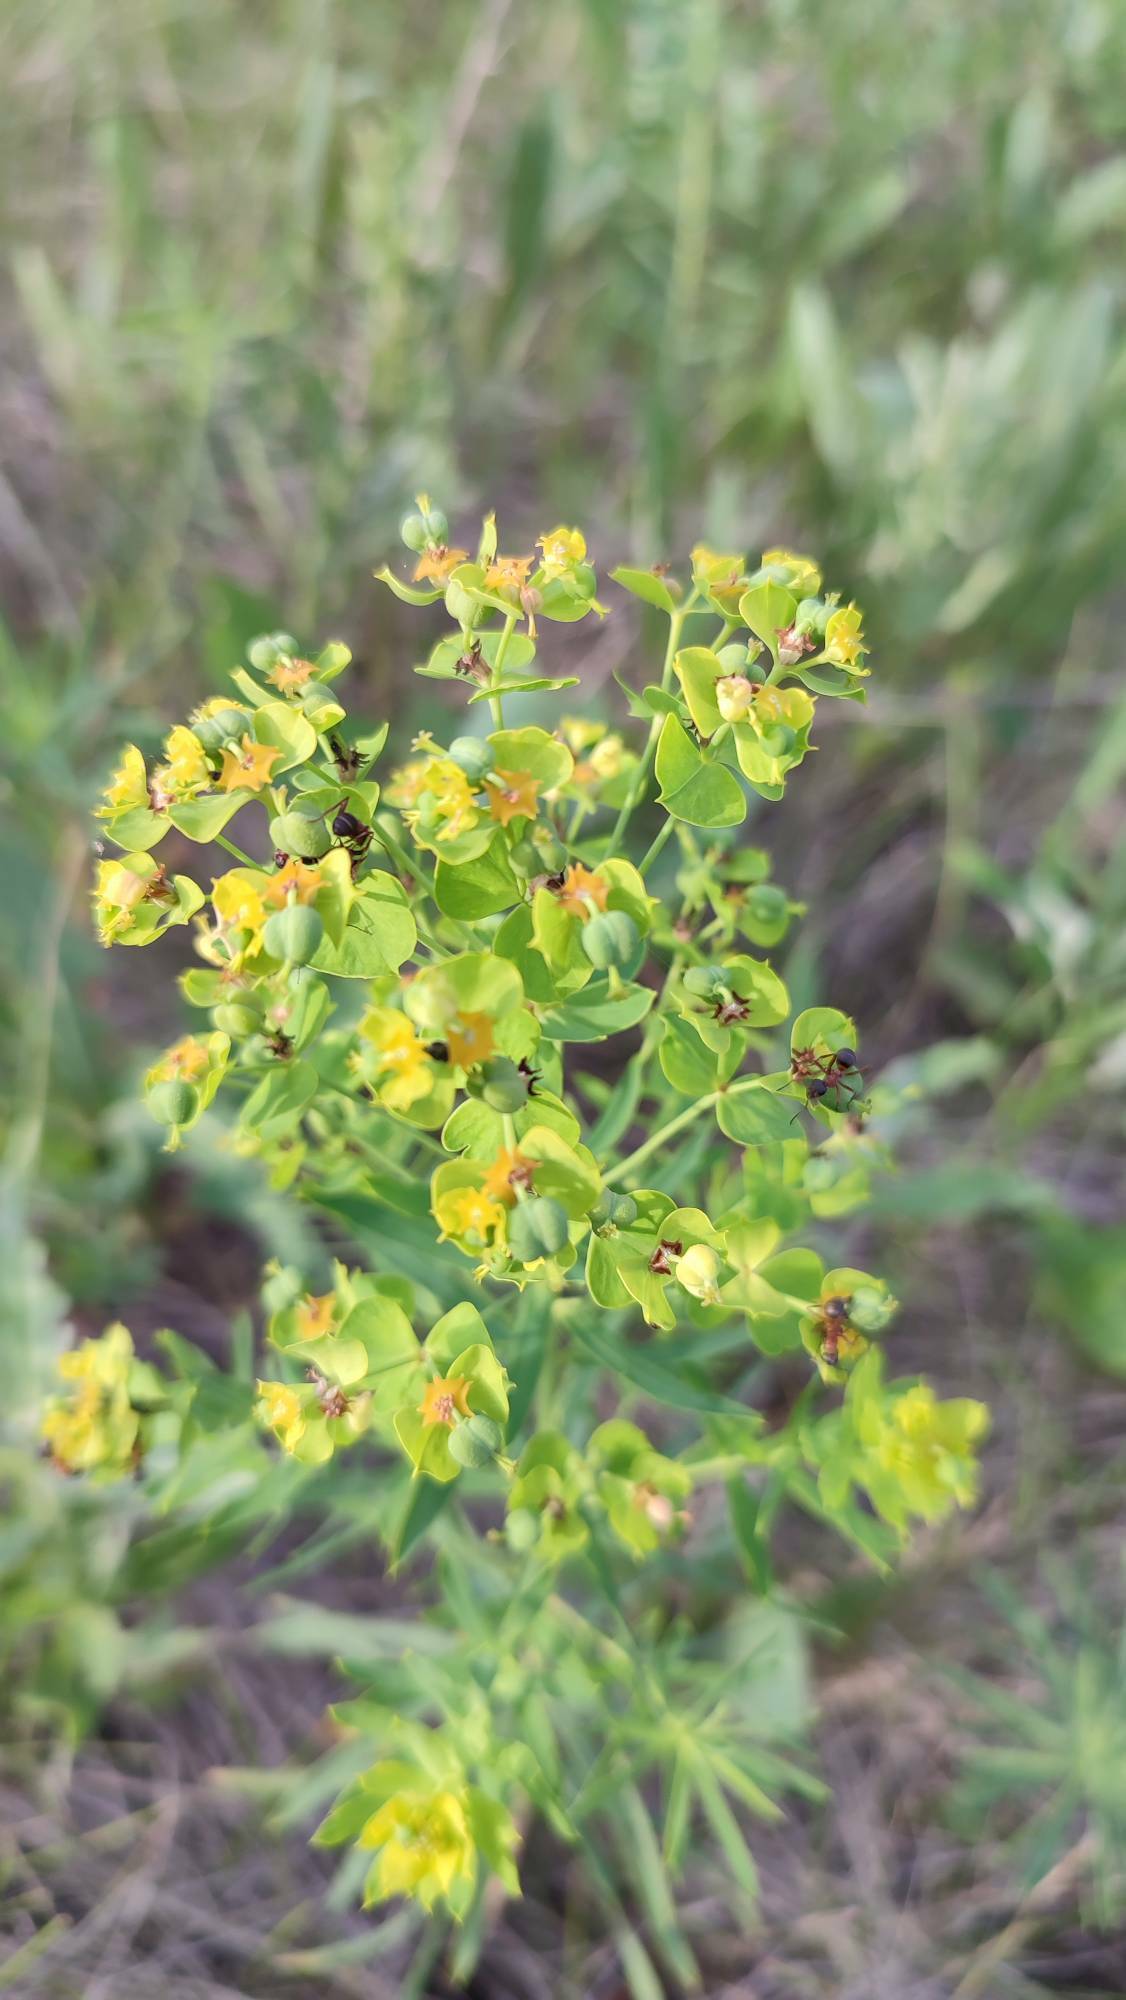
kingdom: Plantae
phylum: Tracheophyta
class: Magnoliopsida
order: Malpighiales
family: Euphorbiaceae
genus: Euphorbia
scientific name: Euphorbia virgata
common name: Leafy spurge
